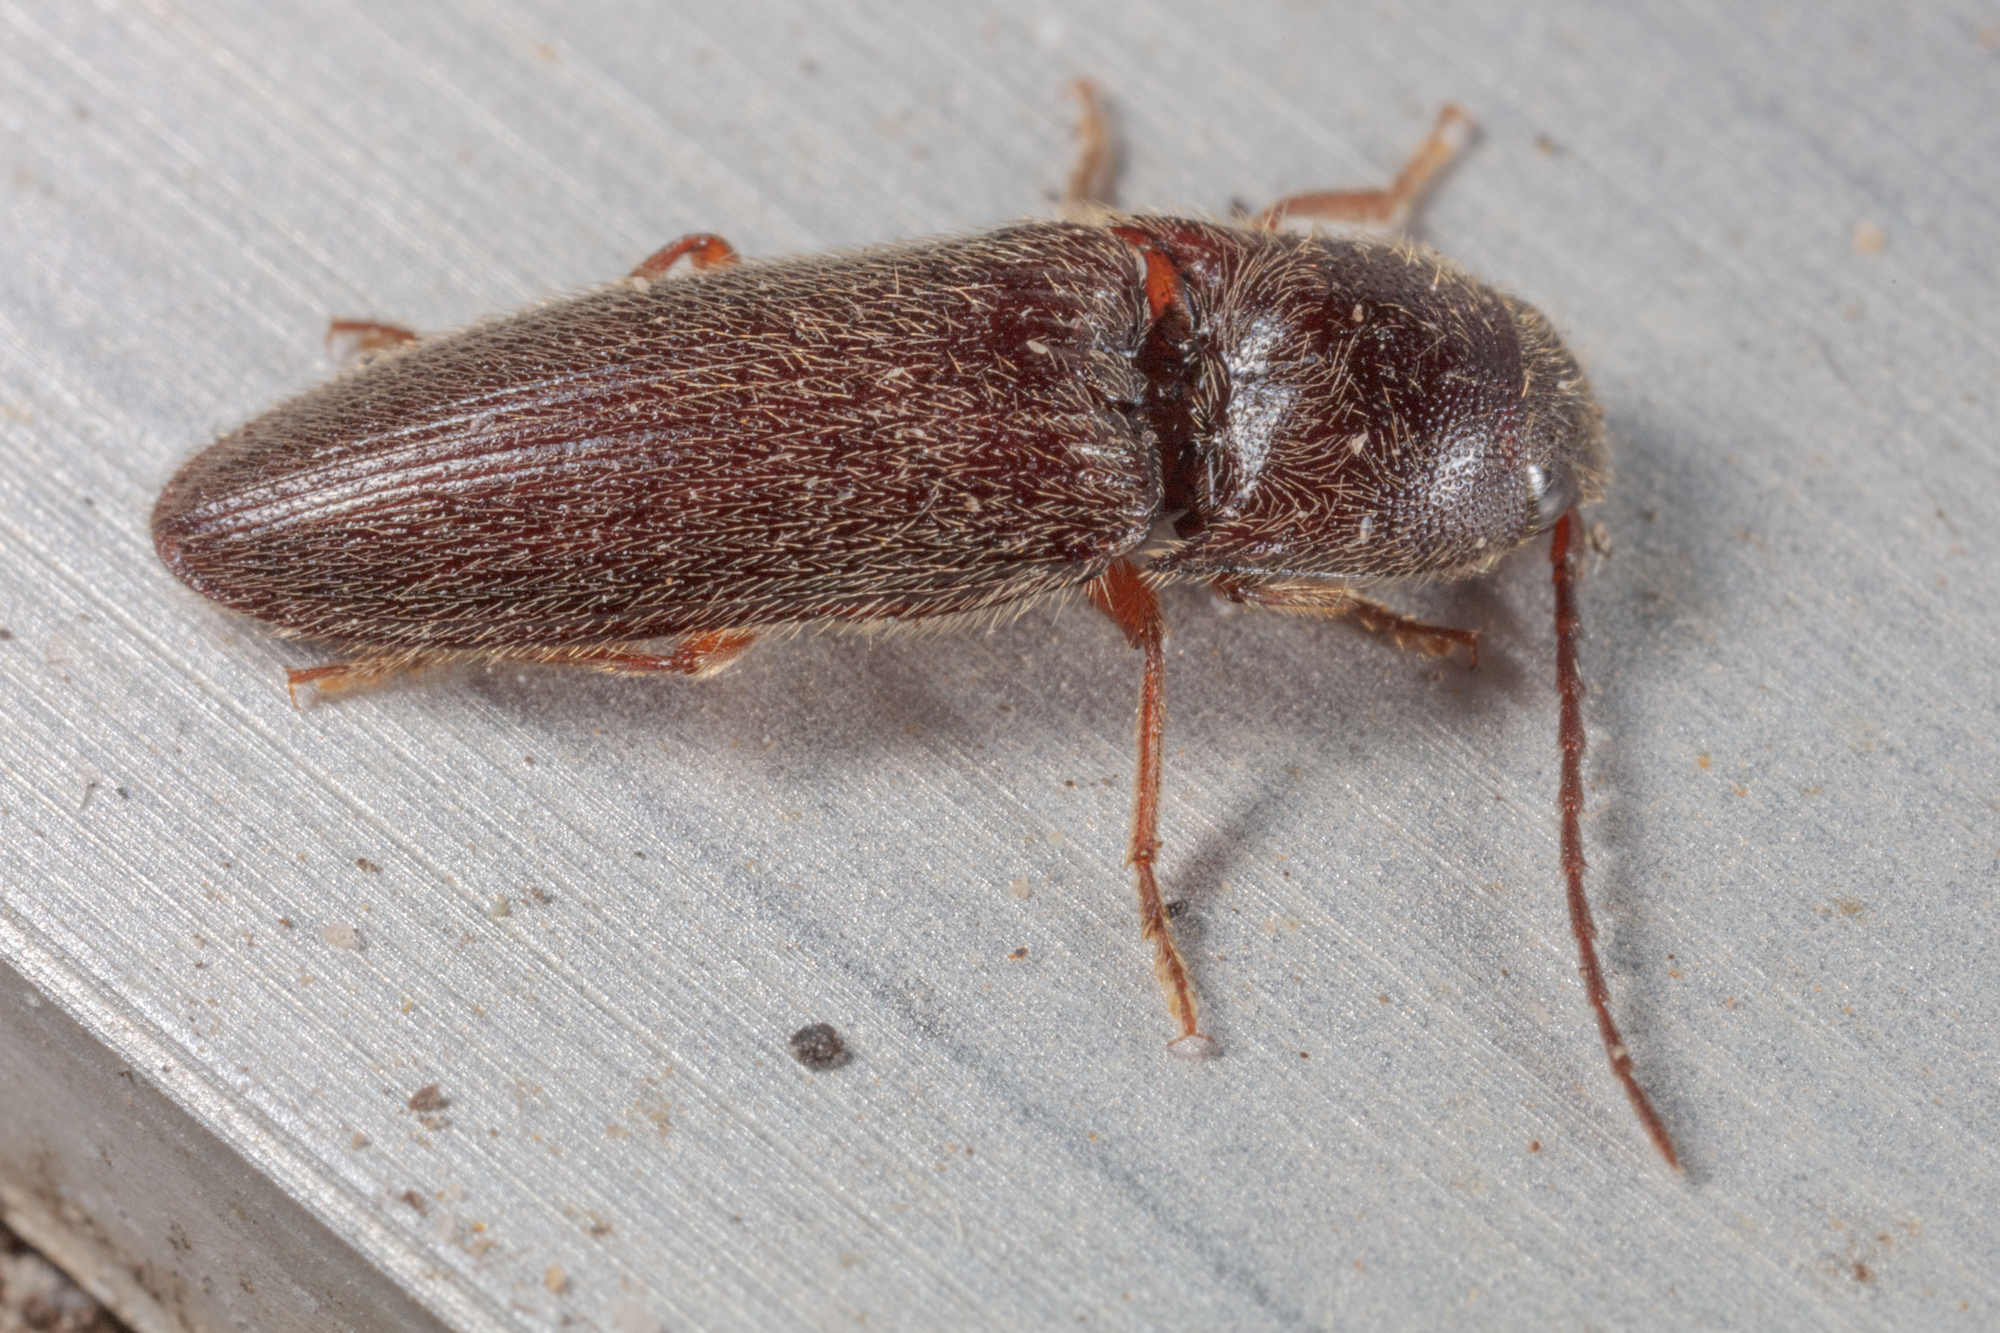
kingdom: Animalia
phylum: Arthropoda
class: Insecta
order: Coleoptera
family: Elateridae
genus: Dipropus
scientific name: Dipropus
